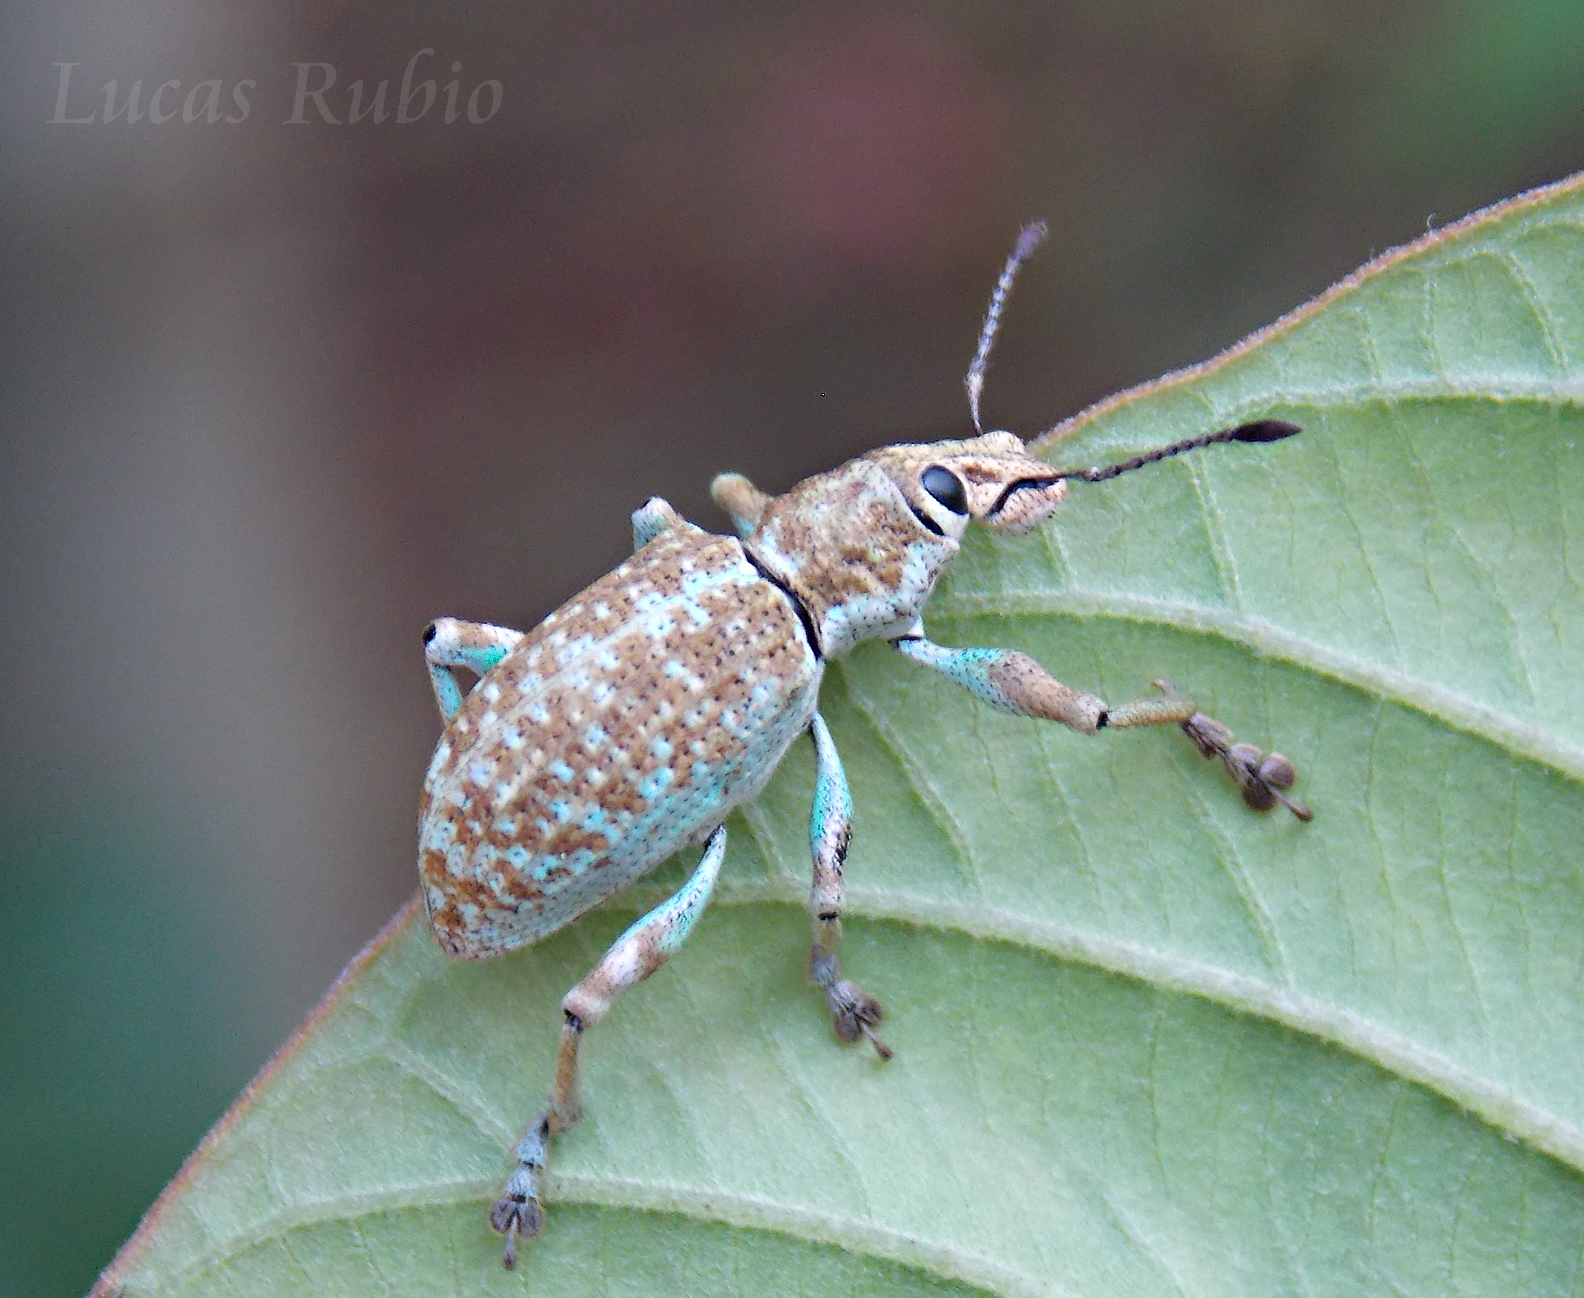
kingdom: Animalia
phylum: Arthropoda
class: Insecta
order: Coleoptera
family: Curculionidae
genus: Rhigus
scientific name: Rhigus faldermanni
